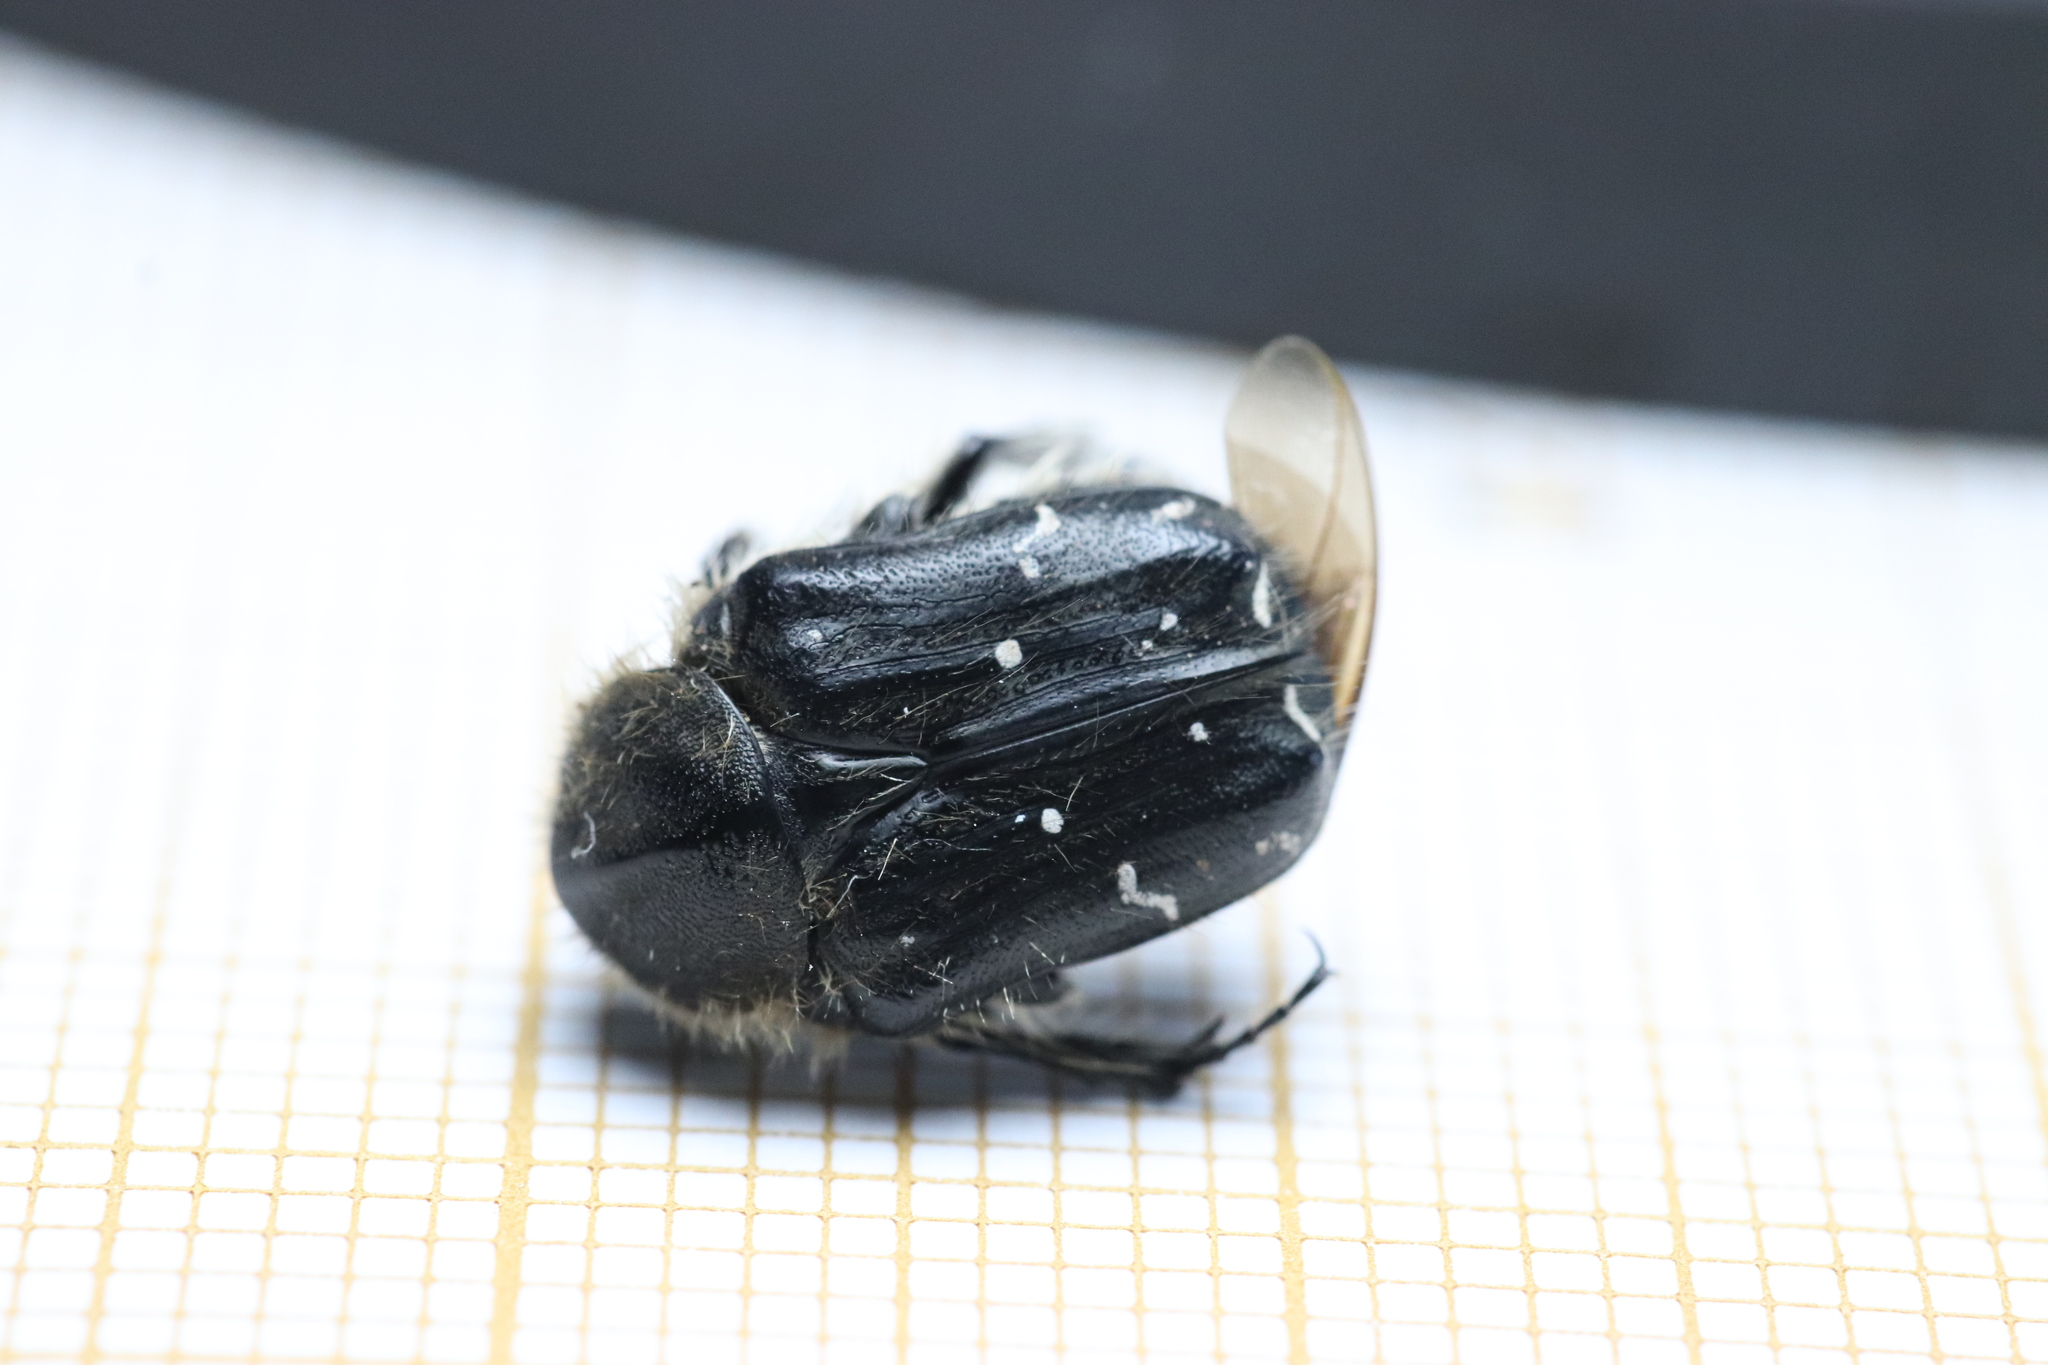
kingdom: Animalia
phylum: Arthropoda
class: Insecta
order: Coleoptera
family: Scarabaeidae
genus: Tropinota
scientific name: Tropinota hirta
